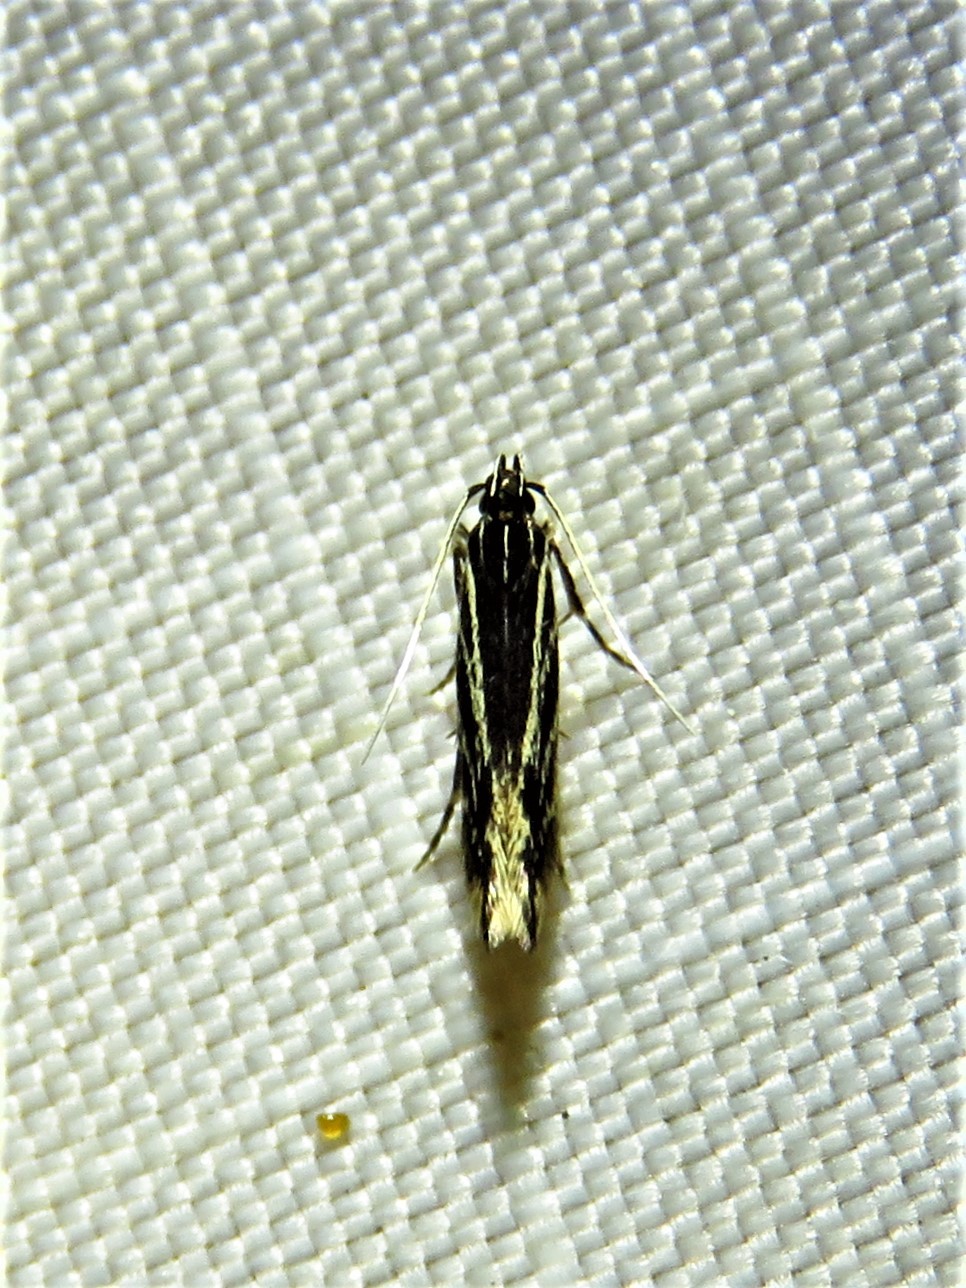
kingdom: Animalia
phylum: Arthropoda
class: Insecta
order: Lepidoptera
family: Cosmopterigidae
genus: Eralea
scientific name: Eralea albalineella
